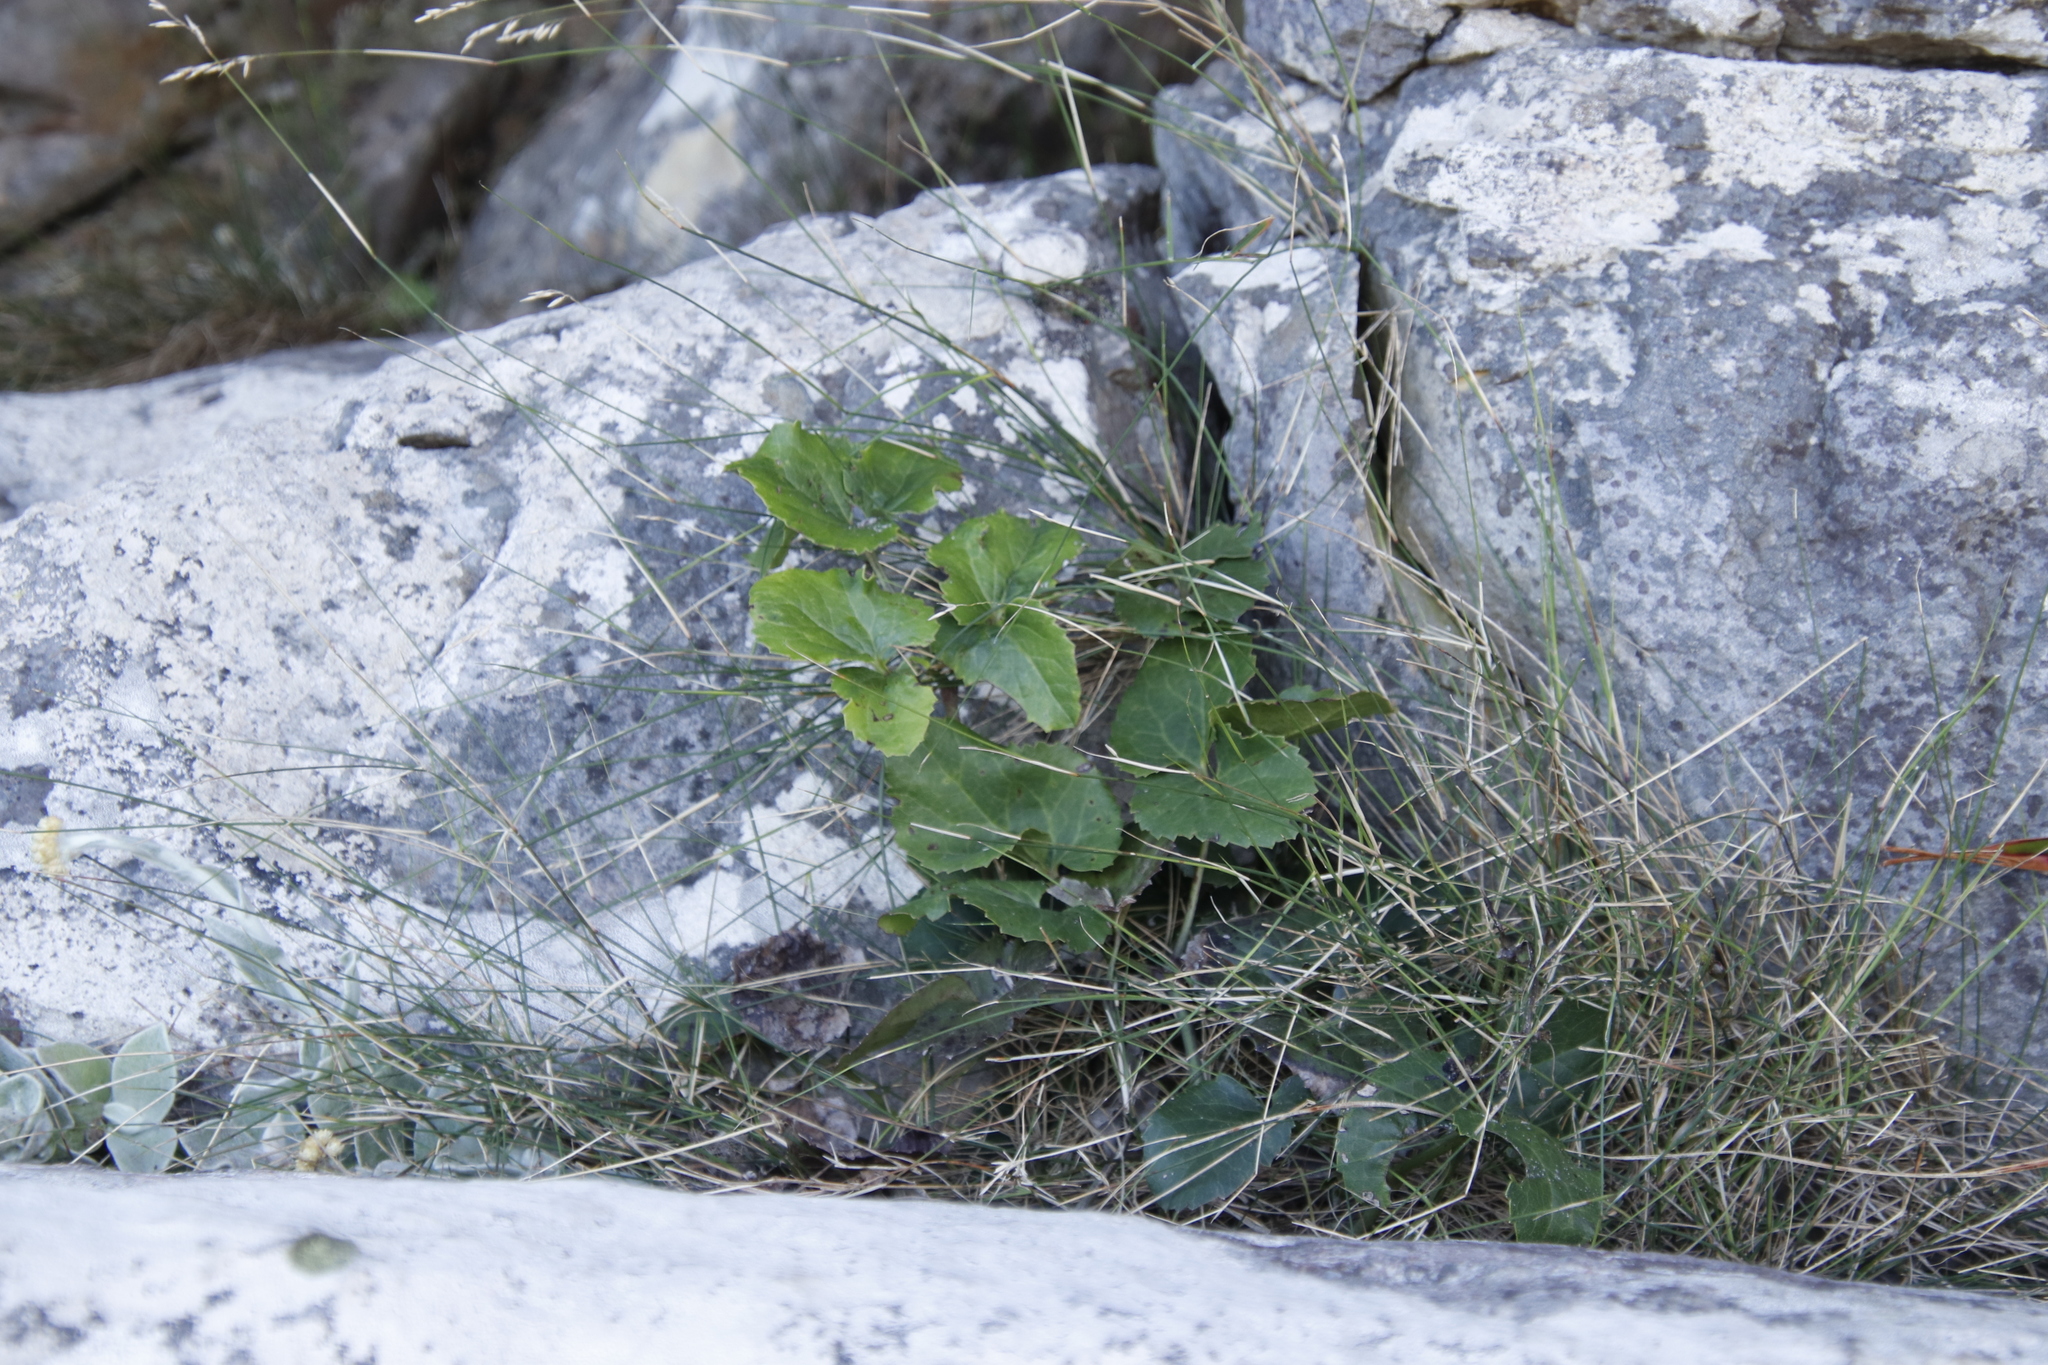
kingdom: Plantae
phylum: Tracheophyta
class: Magnoliopsida
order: Ranunculales
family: Ranunculaceae
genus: Knowltonia
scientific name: Knowltonia vesicatoria
